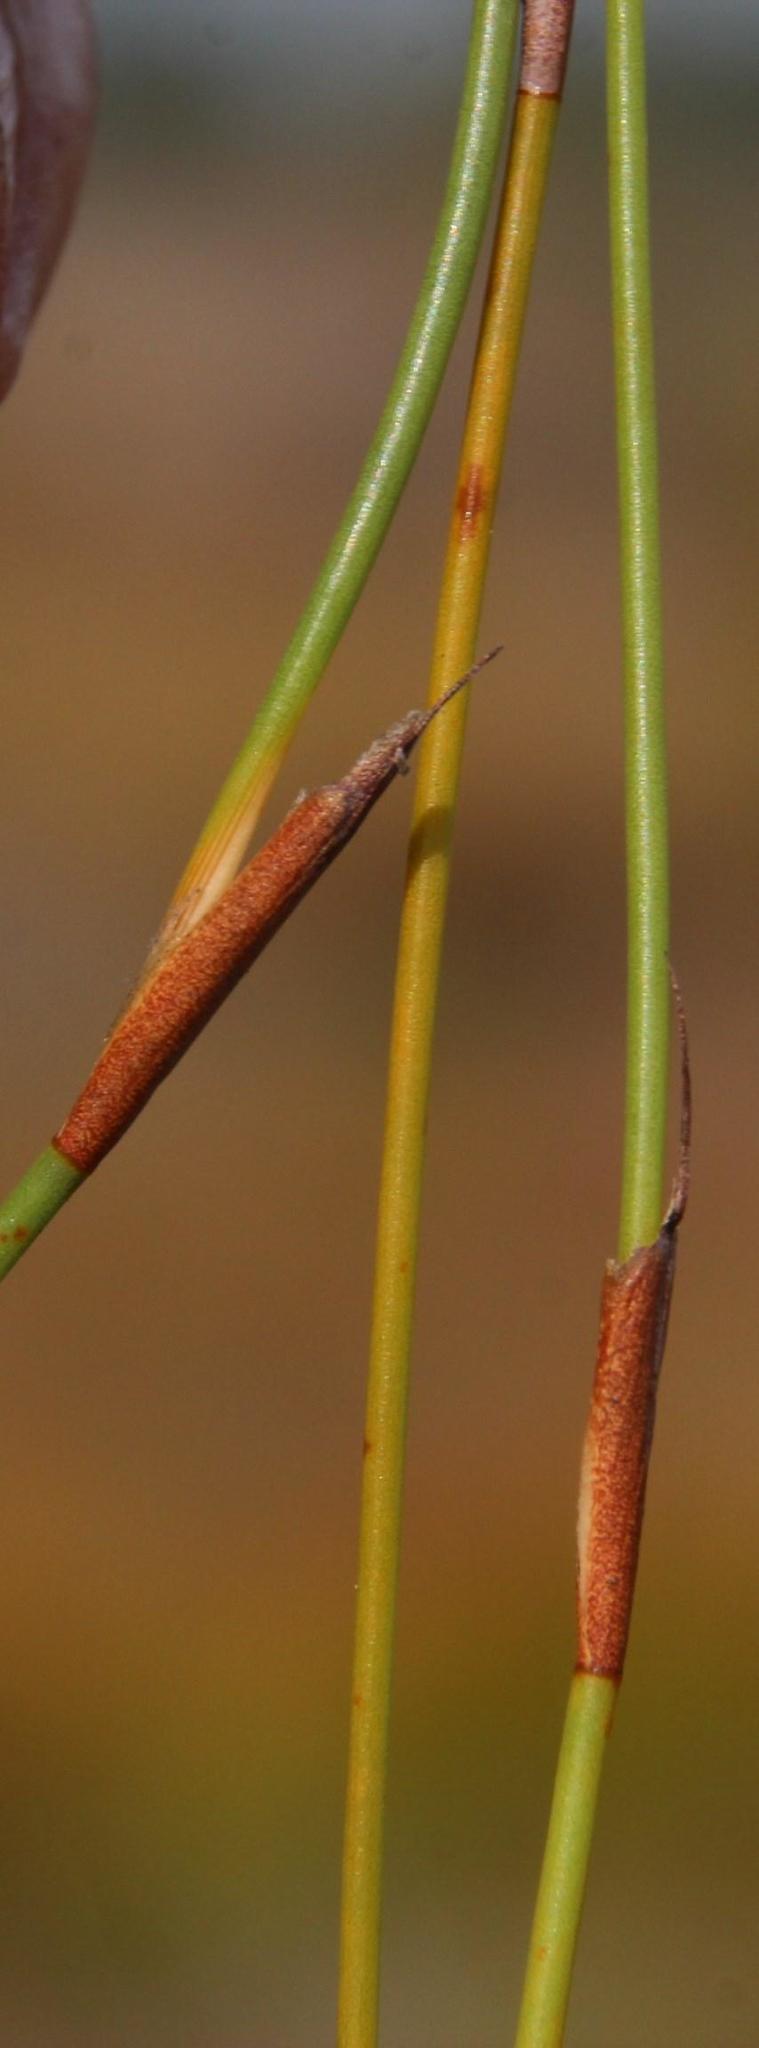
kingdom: Plantae
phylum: Tracheophyta
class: Liliopsida
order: Poales
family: Restionaceae
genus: Willdenowia
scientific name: Willdenowia arescens
